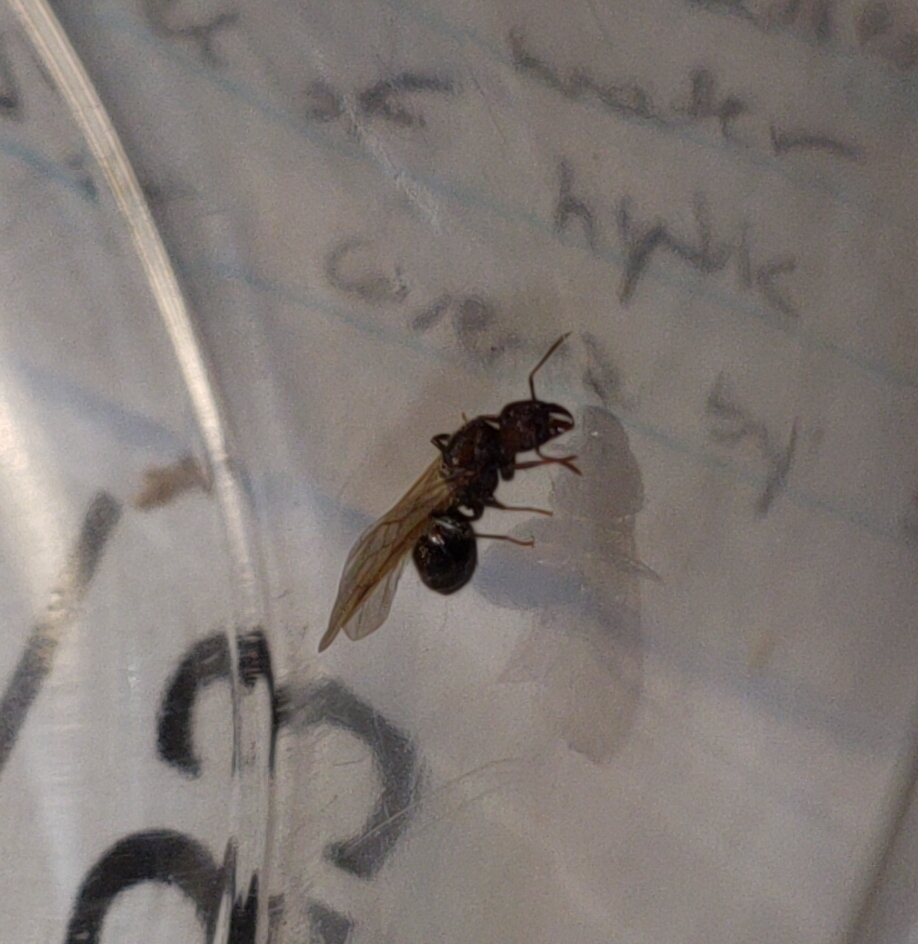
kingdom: Animalia
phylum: Arthropoda
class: Insecta
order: Hymenoptera
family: Formicidae
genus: Pheidole
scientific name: Pheidole obscurithorax
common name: Obscure big-headed ant
